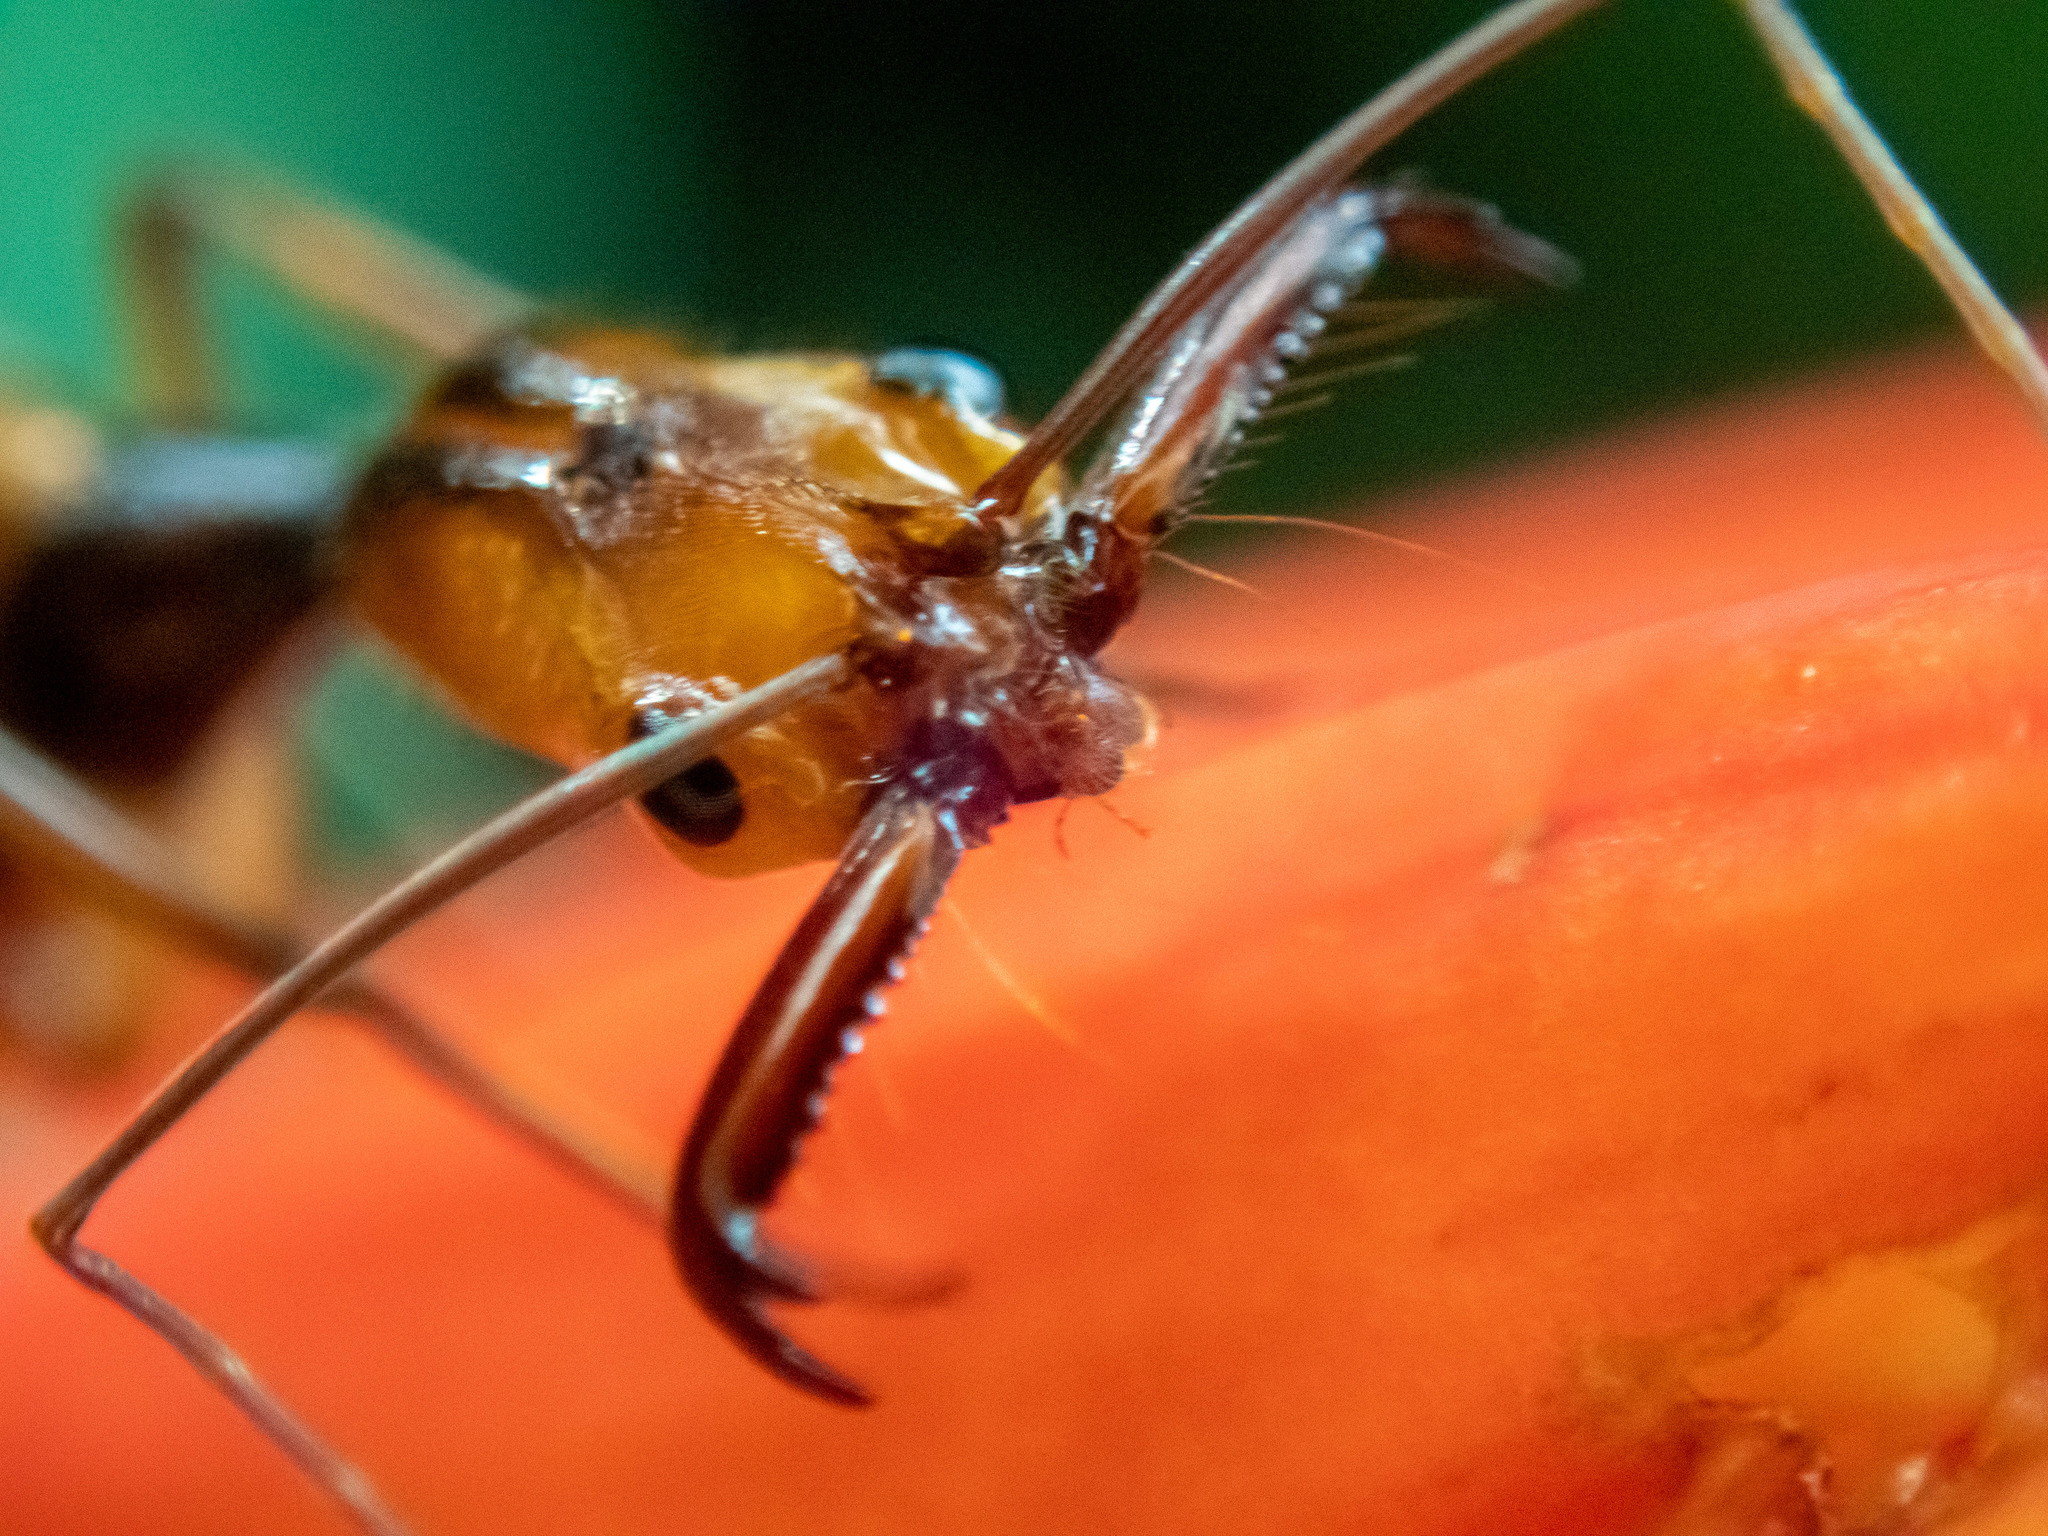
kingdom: Animalia
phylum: Arthropoda
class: Insecta
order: Hymenoptera
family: Formicidae
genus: Odontomachus
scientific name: Odontomachus hastatus
